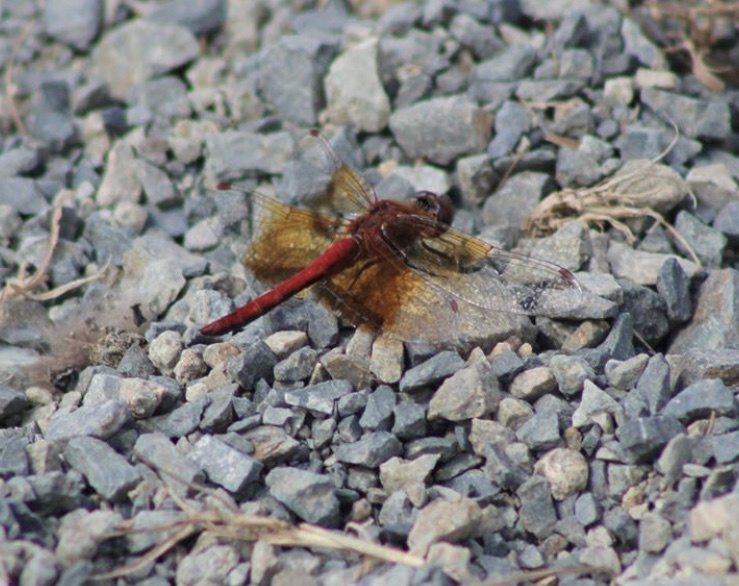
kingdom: Animalia
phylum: Arthropoda
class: Insecta
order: Odonata
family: Libellulidae
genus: Sympetrum
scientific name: Sympetrum semicinctum
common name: Band-winged meadowhawk
